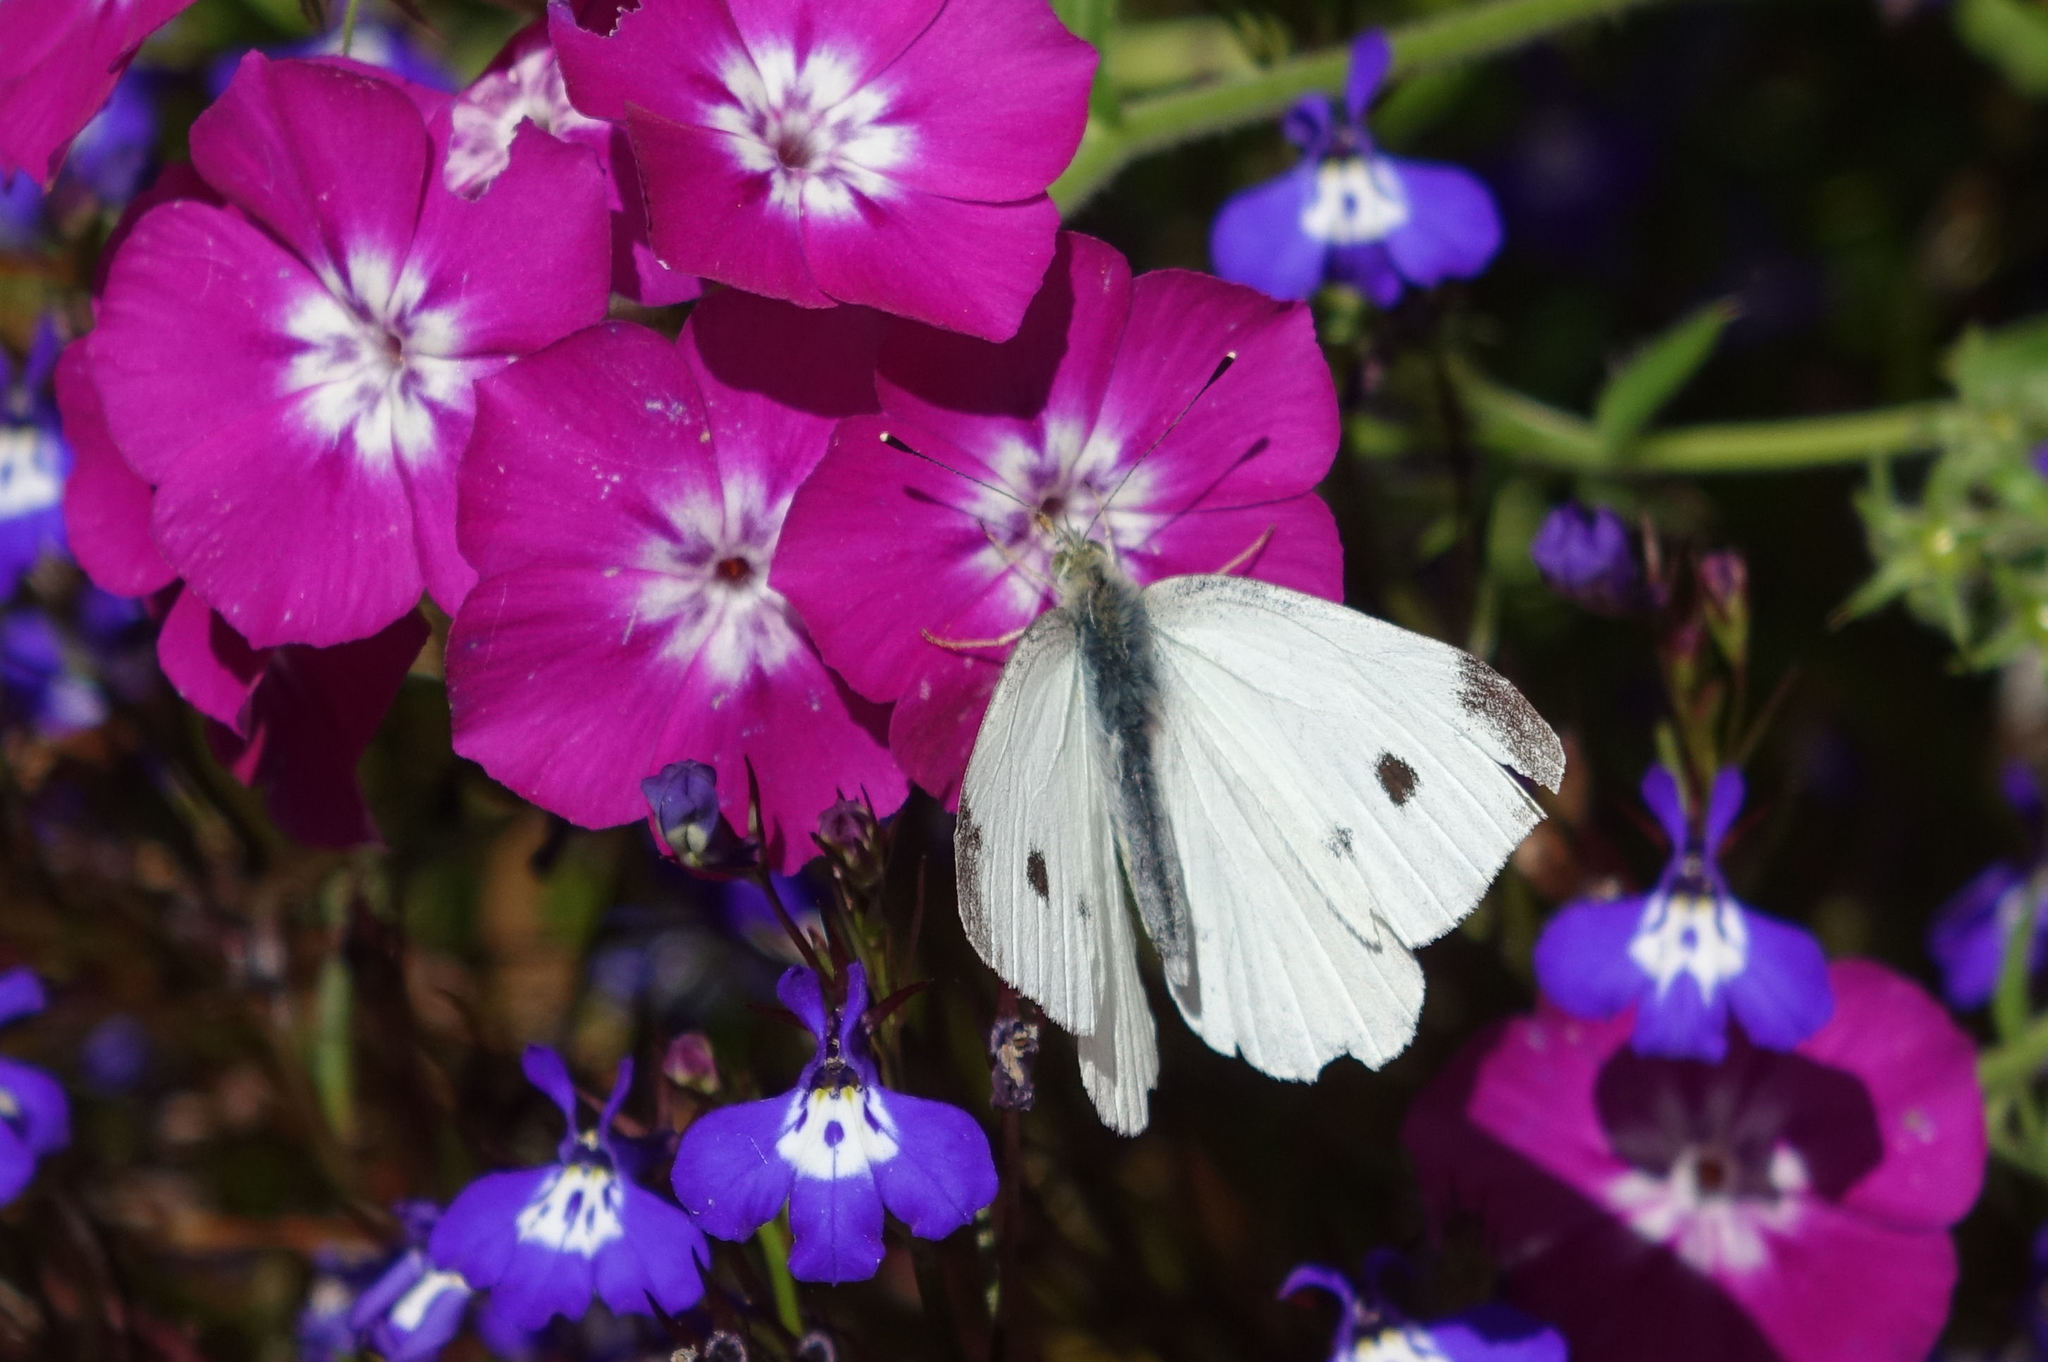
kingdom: Animalia
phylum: Arthropoda
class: Insecta
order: Lepidoptera
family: Pieridae
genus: Pieris
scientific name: Pieris rapae
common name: Small white
